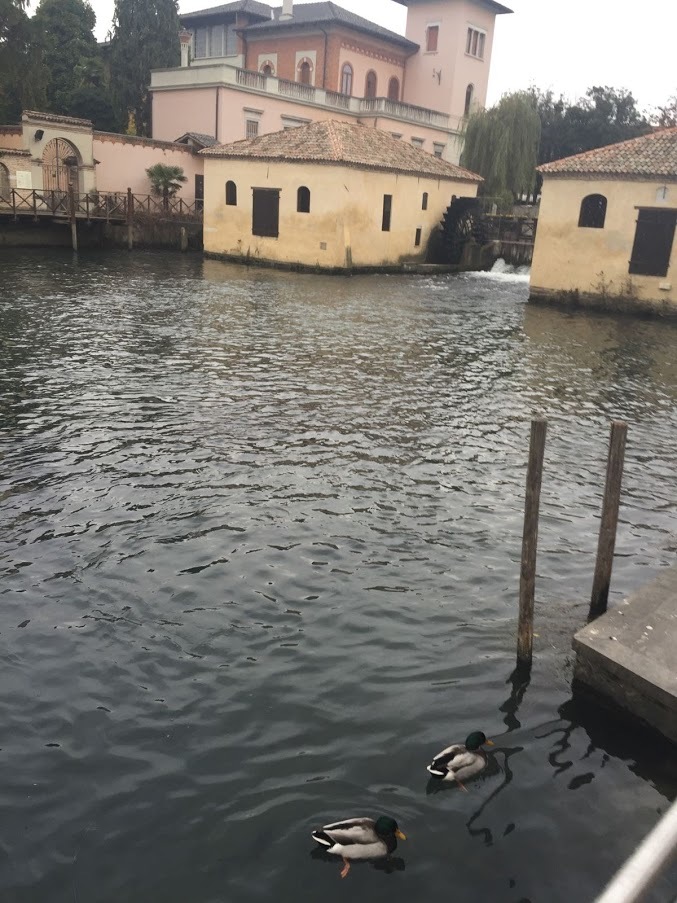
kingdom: Animalia
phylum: Chordata
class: Aves
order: Anseriformes
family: Anatidae
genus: Anas
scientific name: Anas platyrhynchos
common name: Mallard
